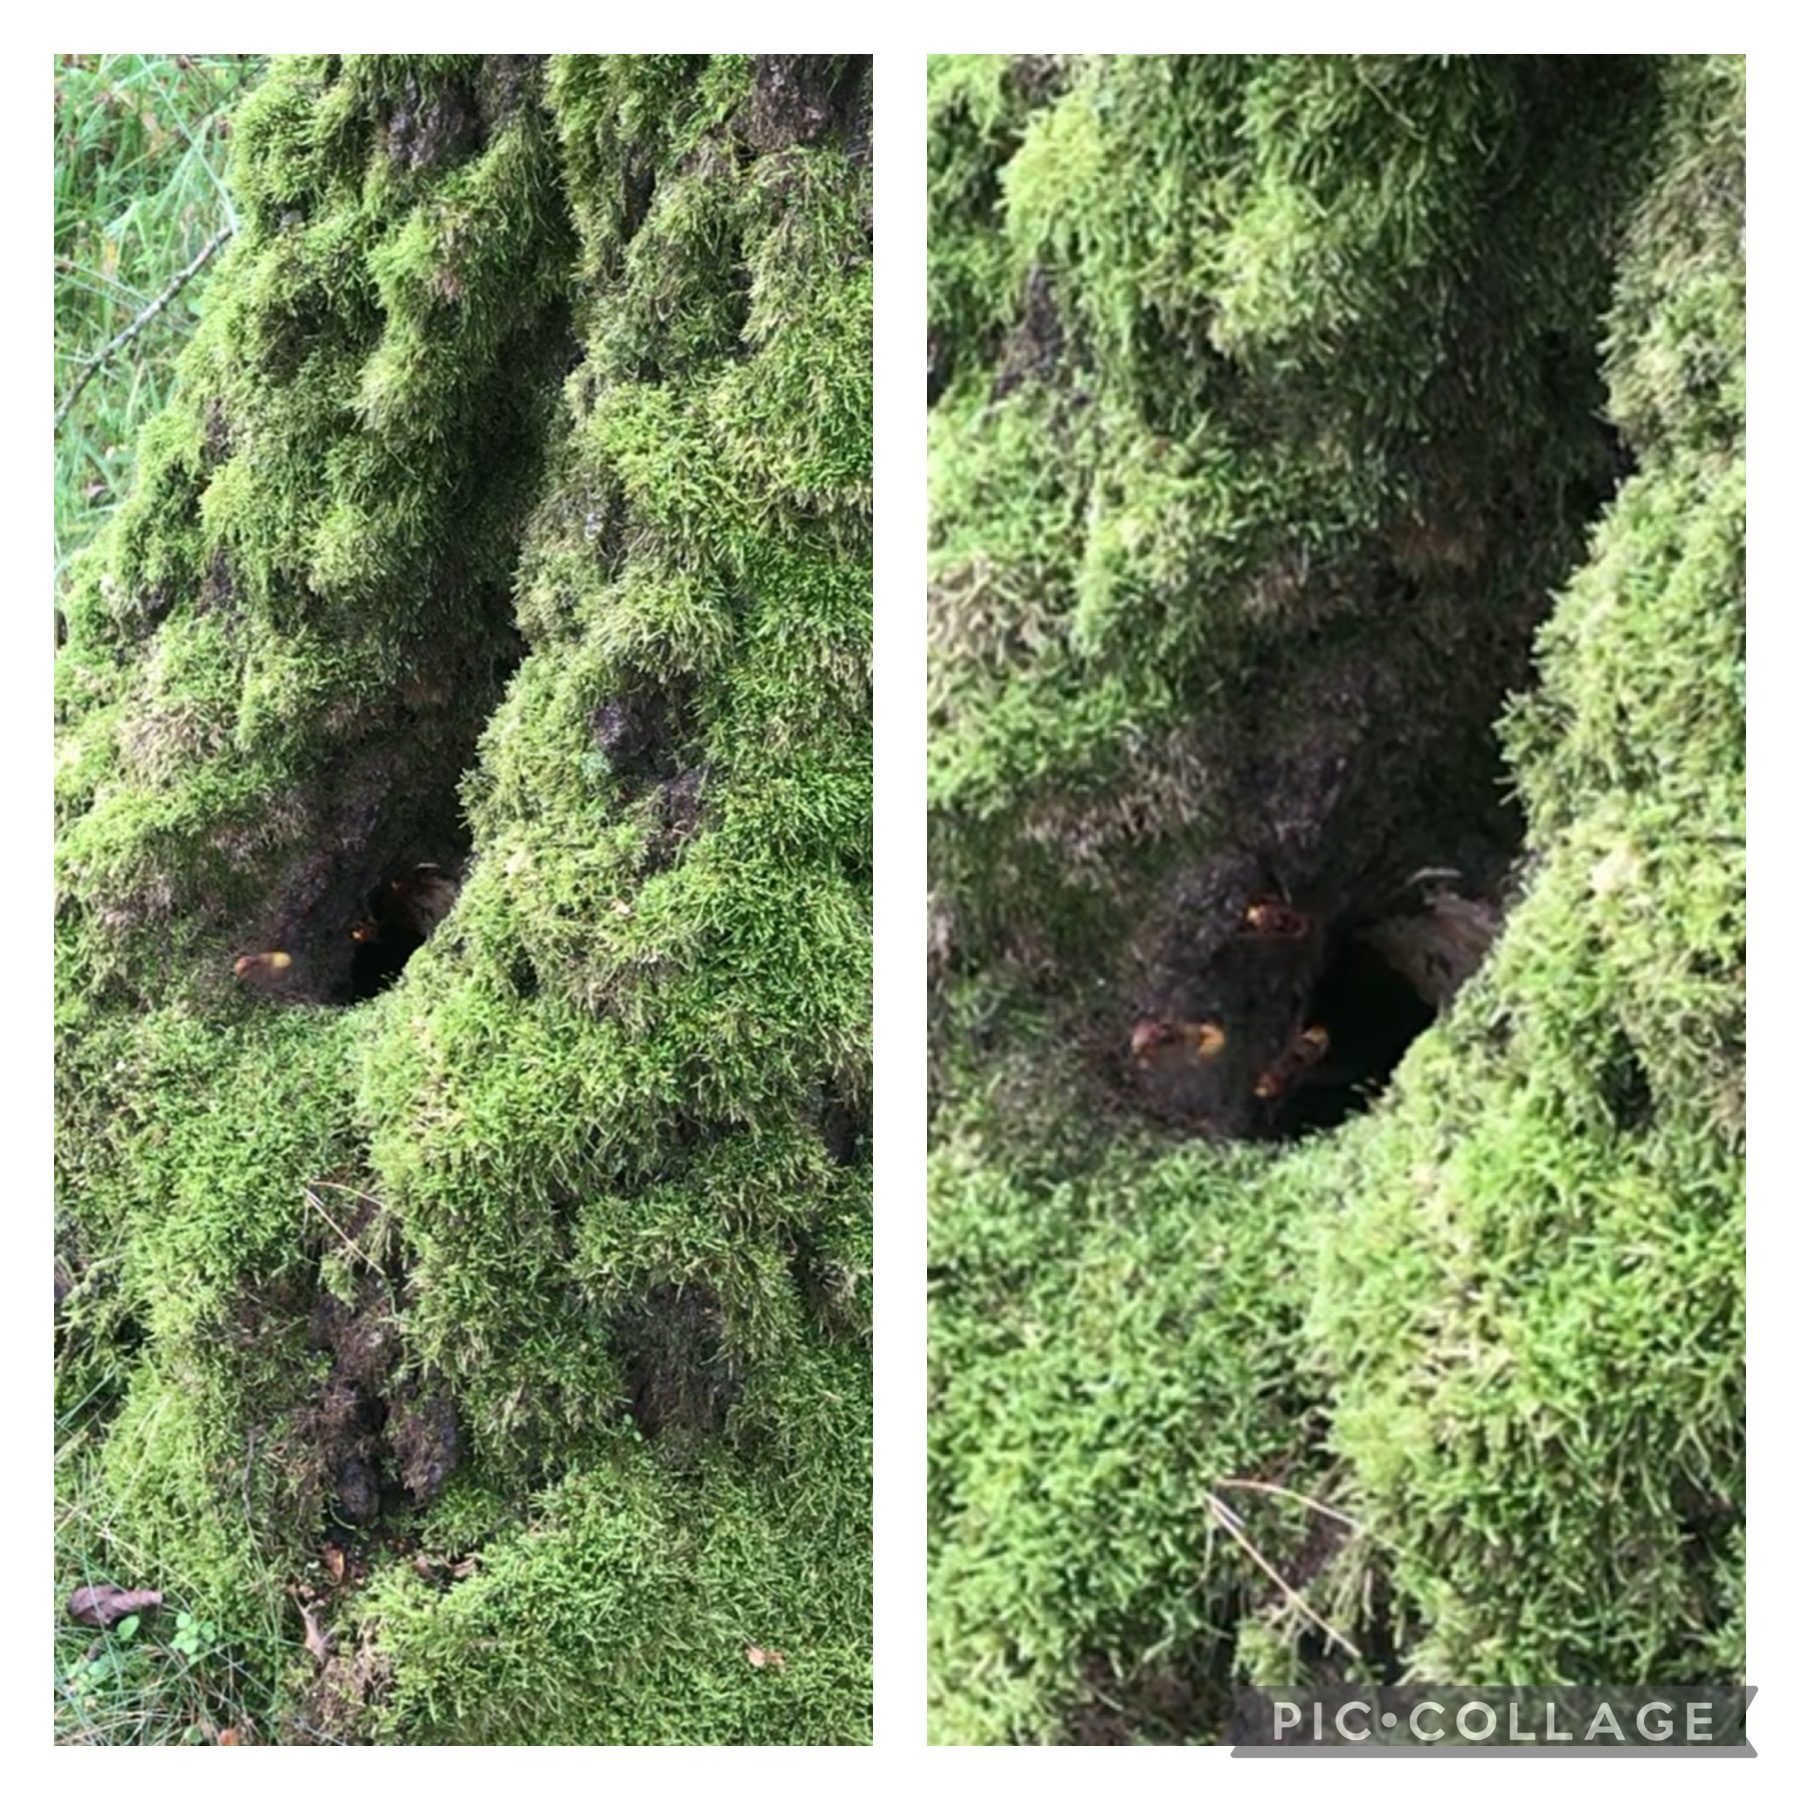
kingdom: Animalia
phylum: Arthropoda
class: Insecta
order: Hymenoptera
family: Vespidae
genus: Vespa
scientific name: Vespa crabro
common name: Hornet
